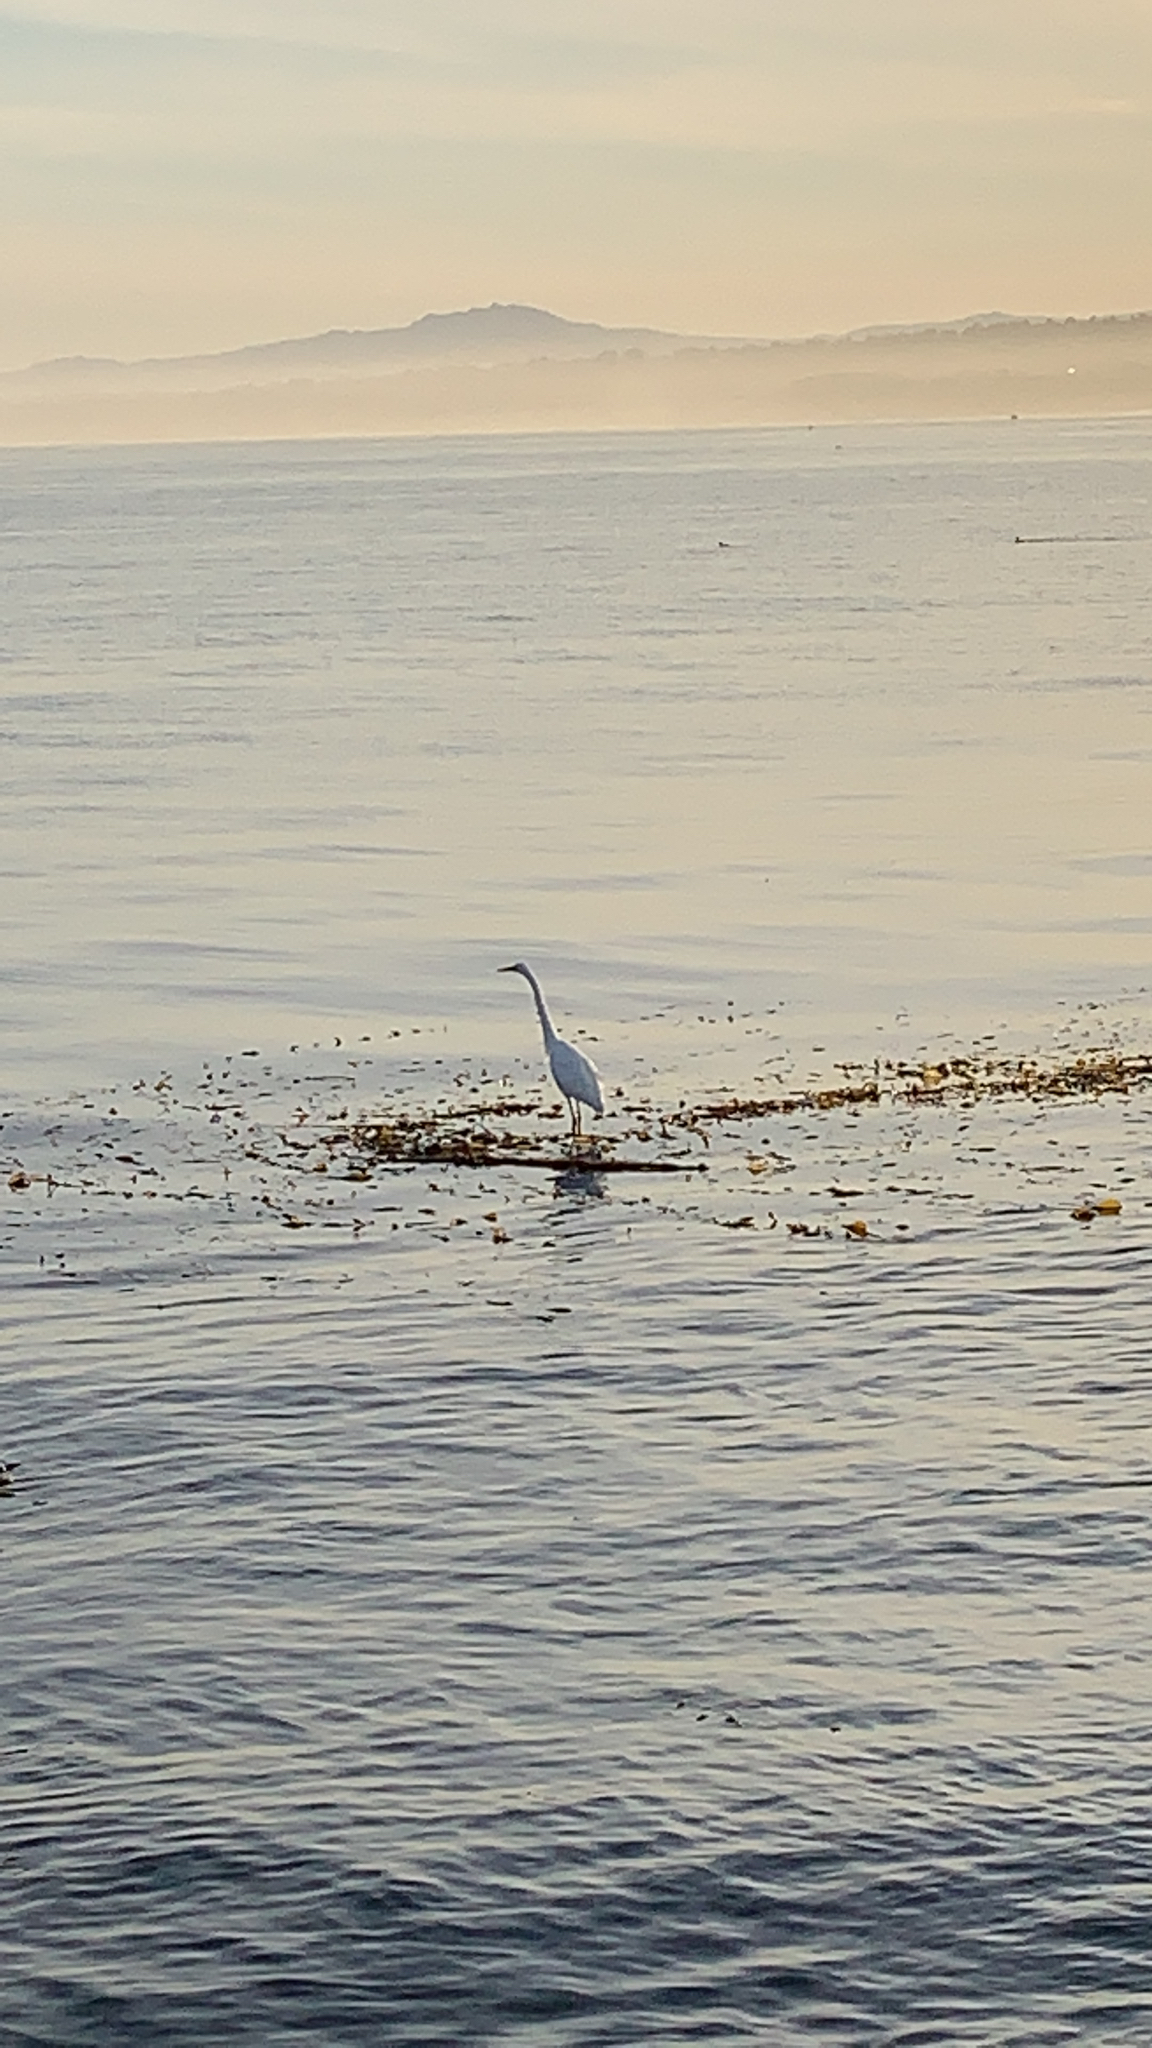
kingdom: Animalia
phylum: Chordata
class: Aves
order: Pelecaniformes
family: Ardeidae
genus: Ardea
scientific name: Ardea alba
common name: Great egret
